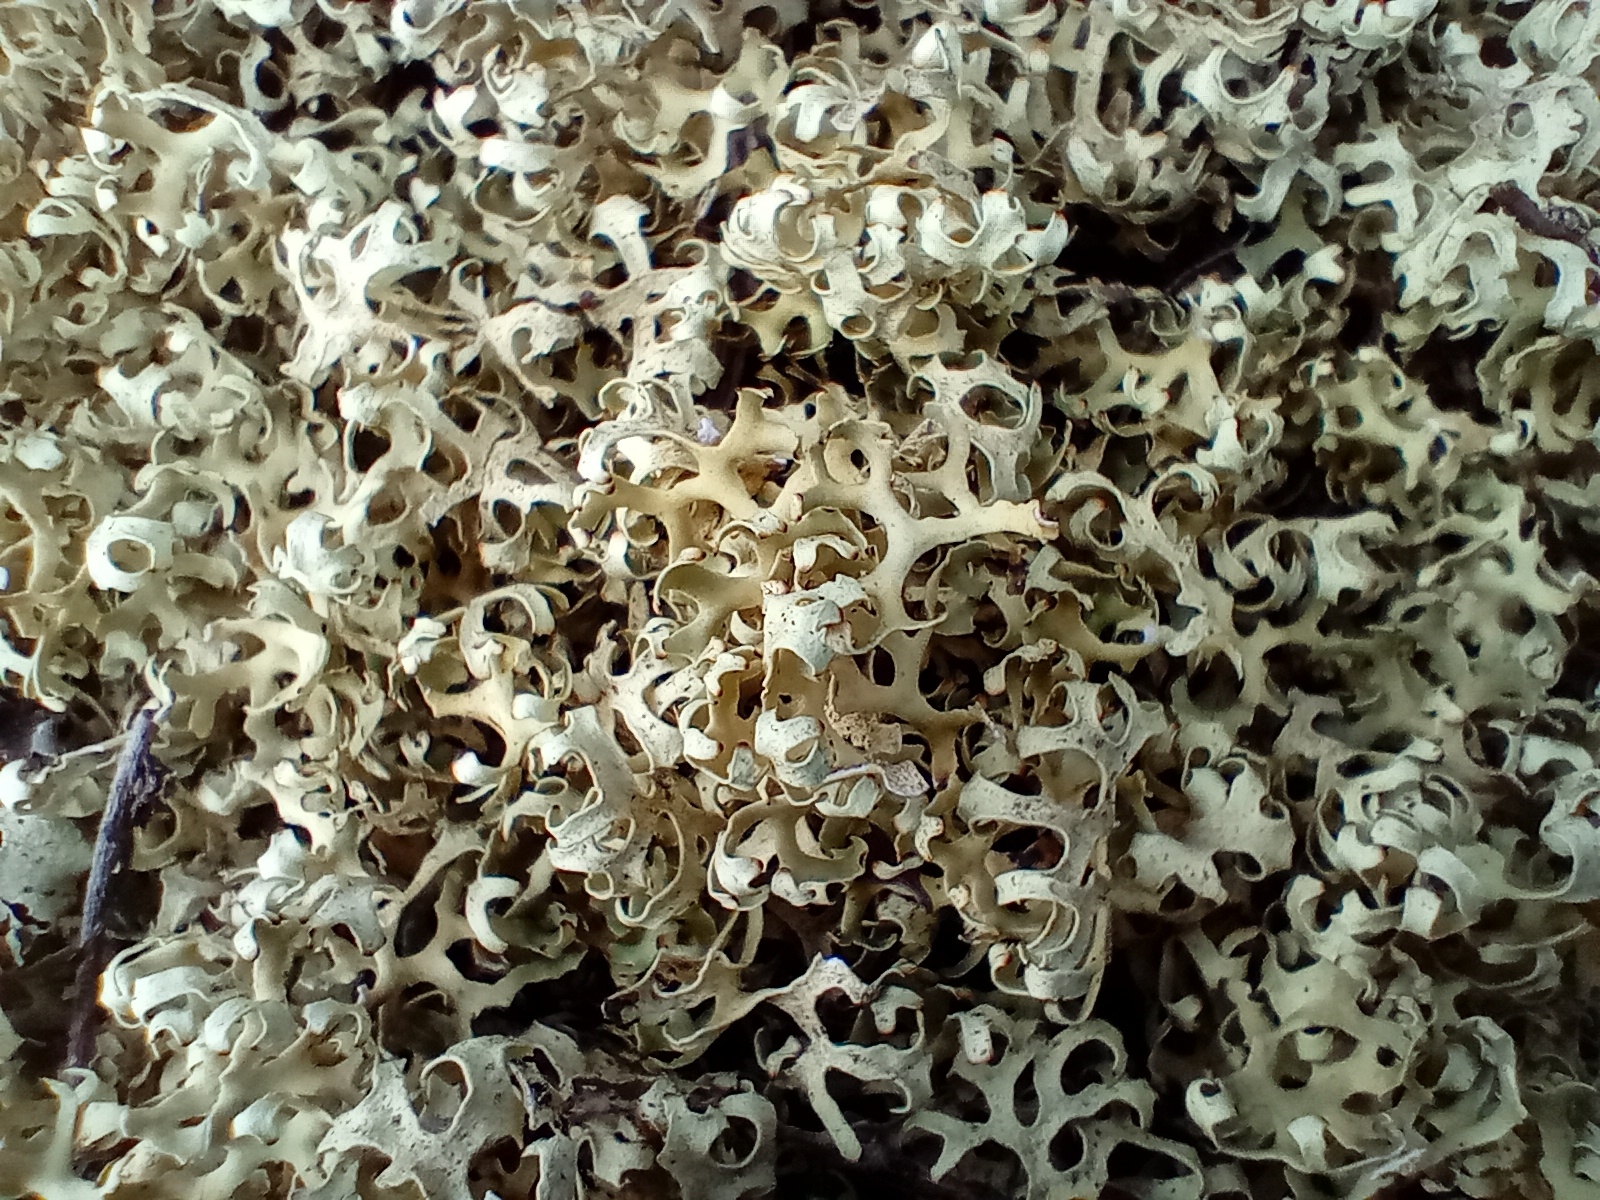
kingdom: Fungi
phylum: Ascomycota
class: Lecanoromycetes
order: Lecanorales
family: Parmeliaceae
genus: Xanthoparmelia
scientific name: Xanthoparmelia semiviridis
